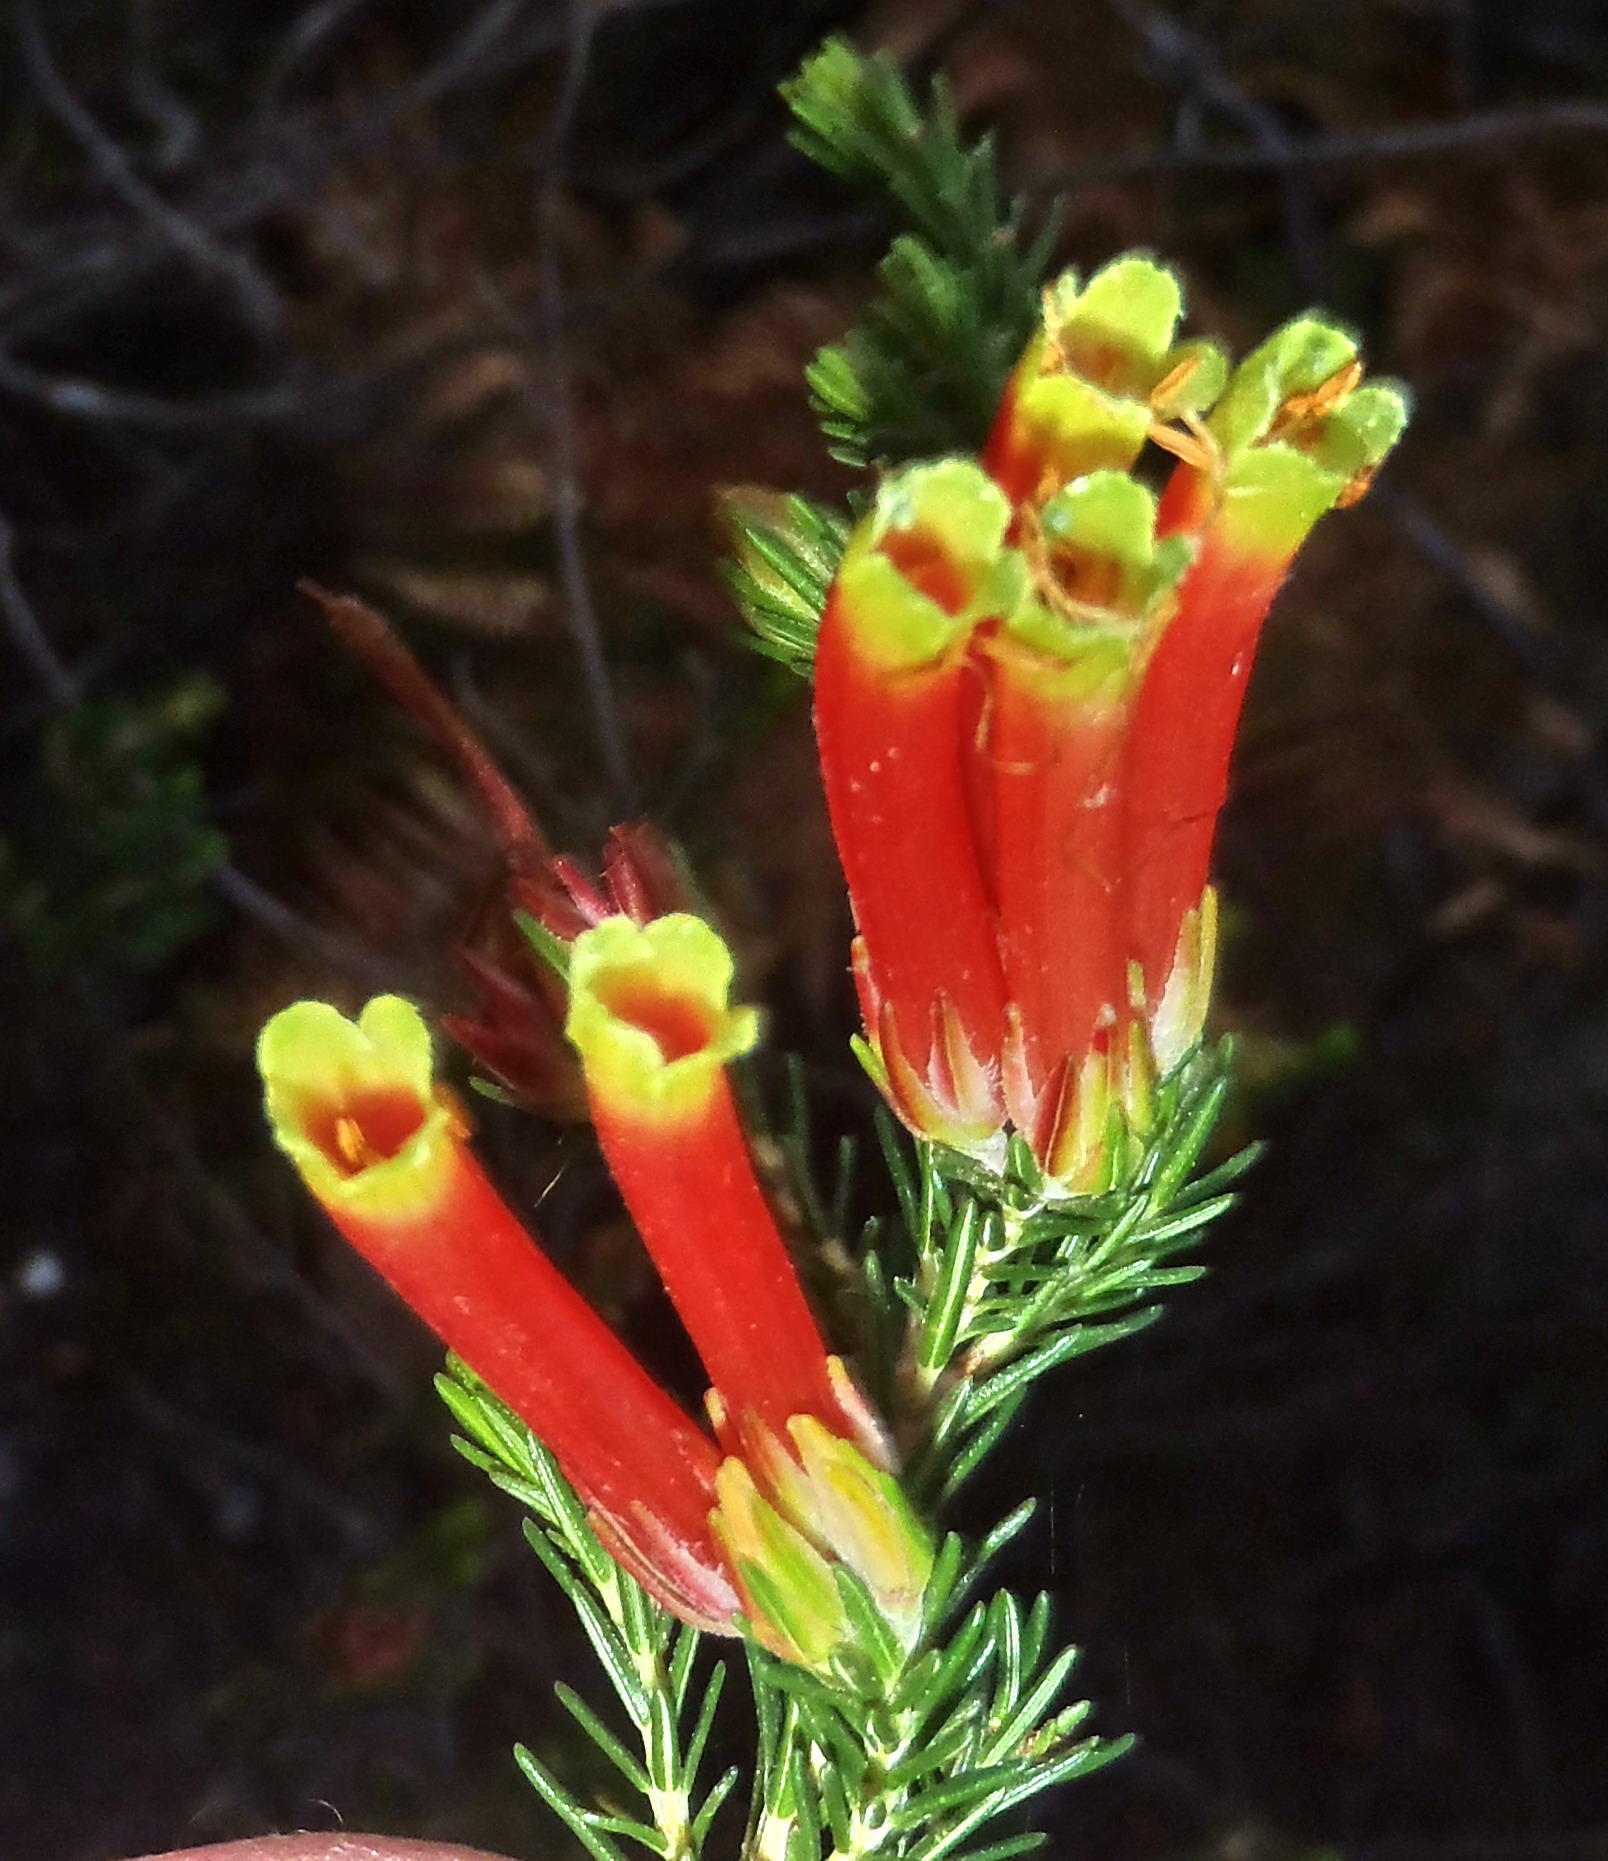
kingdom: Plantae
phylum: Tracheophyta
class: Magnoliopsida
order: Ericales
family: Ericaceae
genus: Erica
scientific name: Erica unicolor
